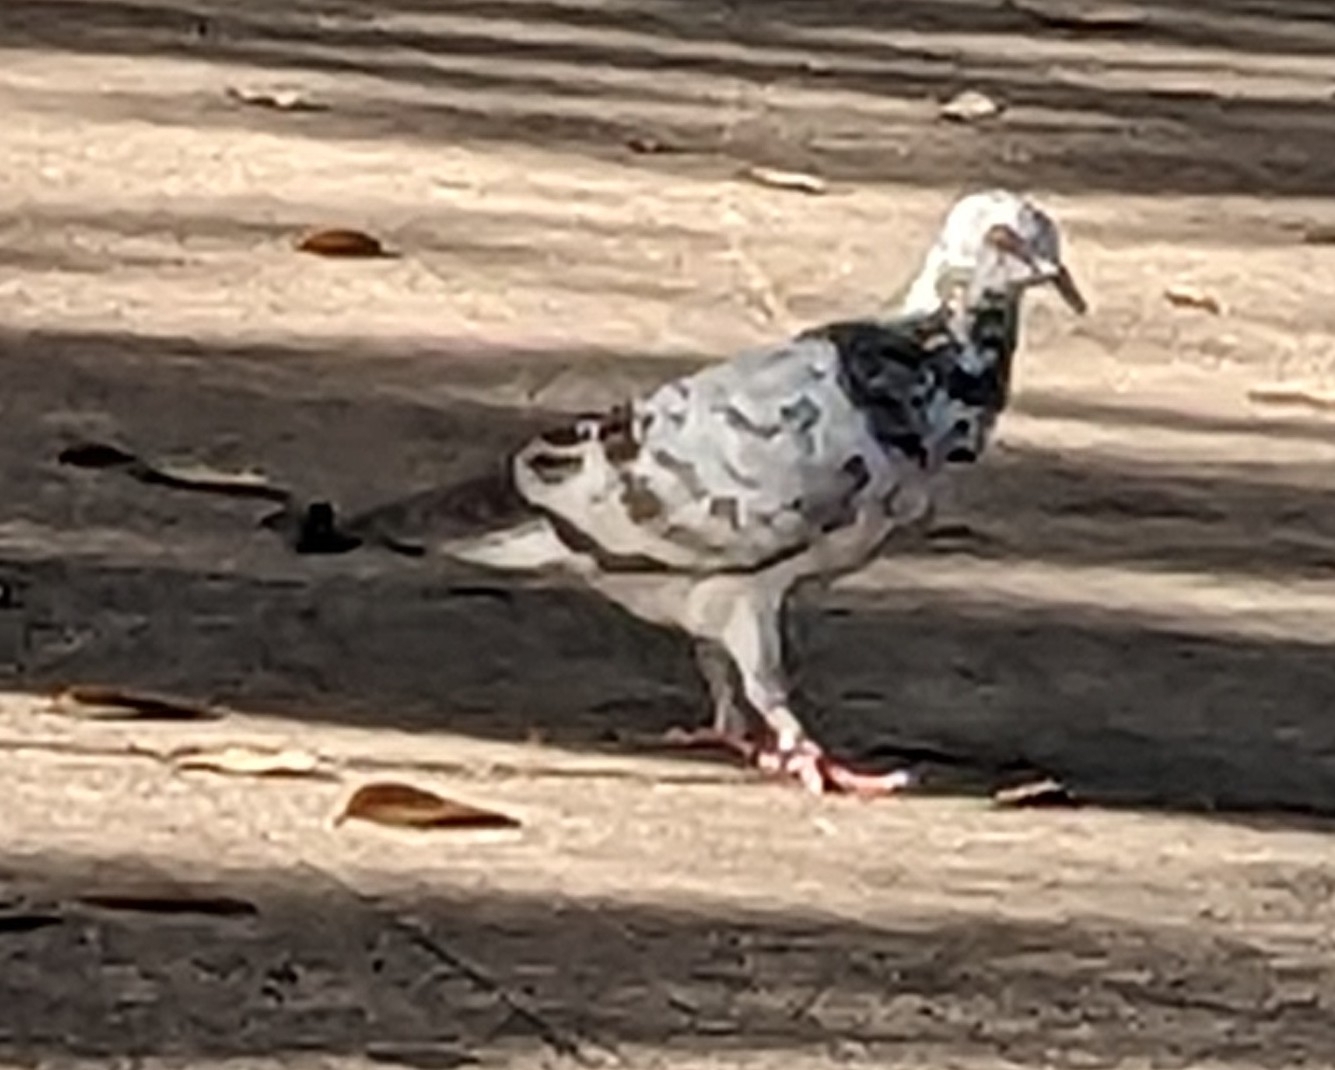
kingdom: Animalia
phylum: Chordata
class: Aves
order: Columbiformes
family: Columbidae
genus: Columba
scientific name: Columba livia
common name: Rock pigeon
